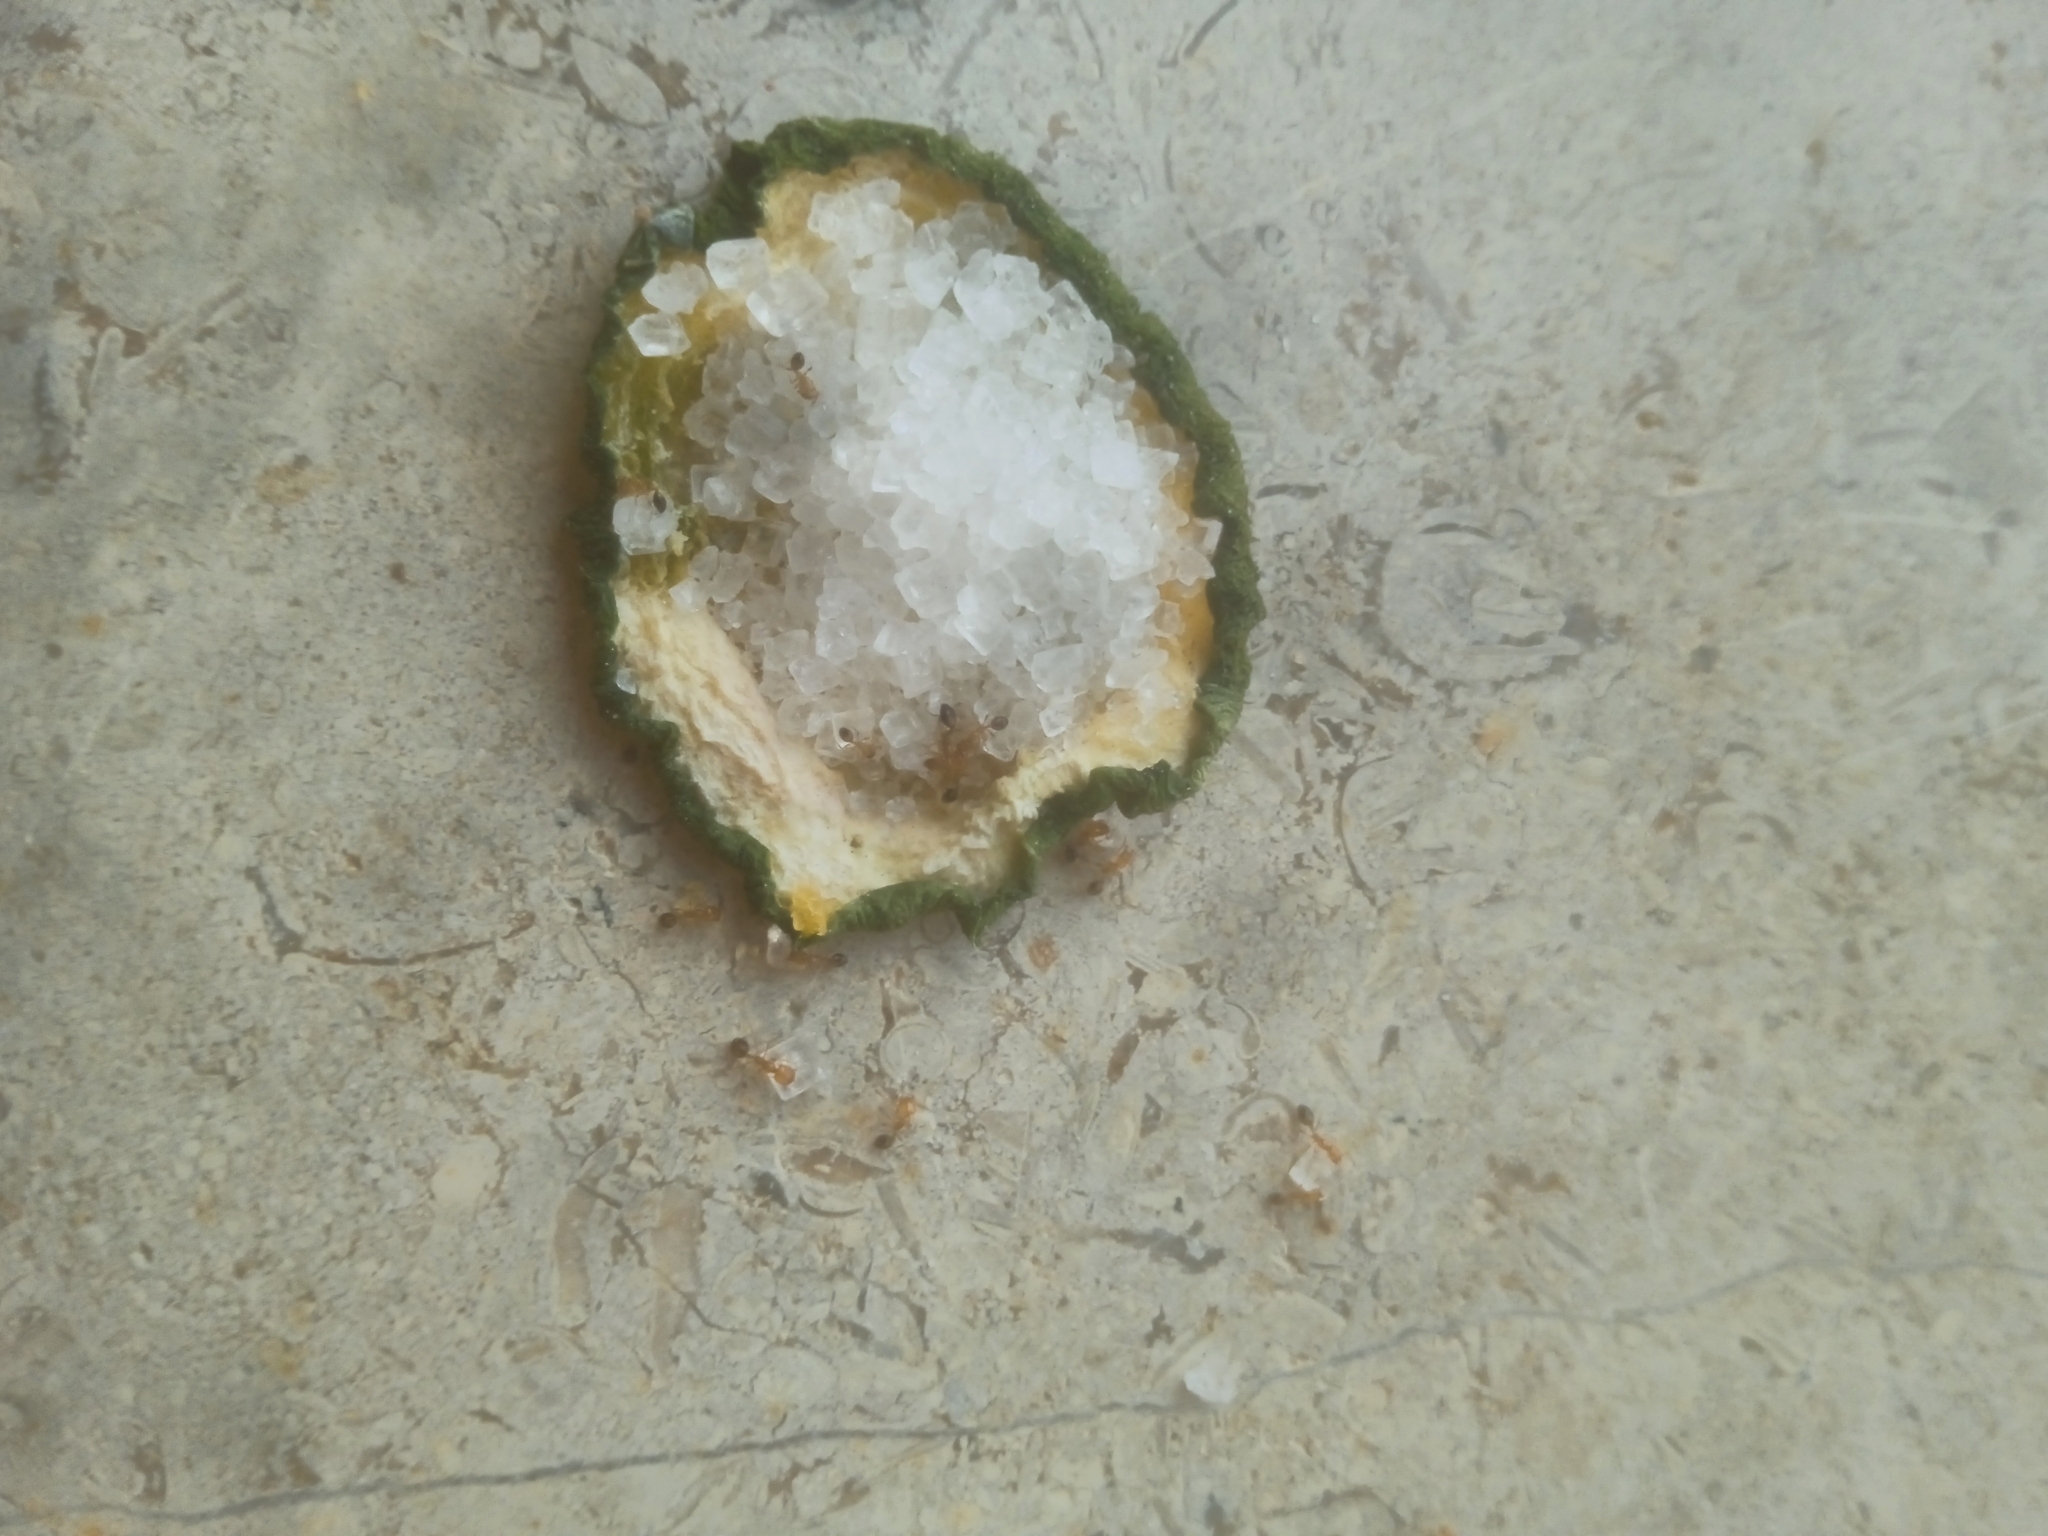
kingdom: Animalia
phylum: Arthropoda
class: Insecta
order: Hymenoptera
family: Formicidae
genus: Monomorium
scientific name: Monomorium destructor
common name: Destructive trailing ant
